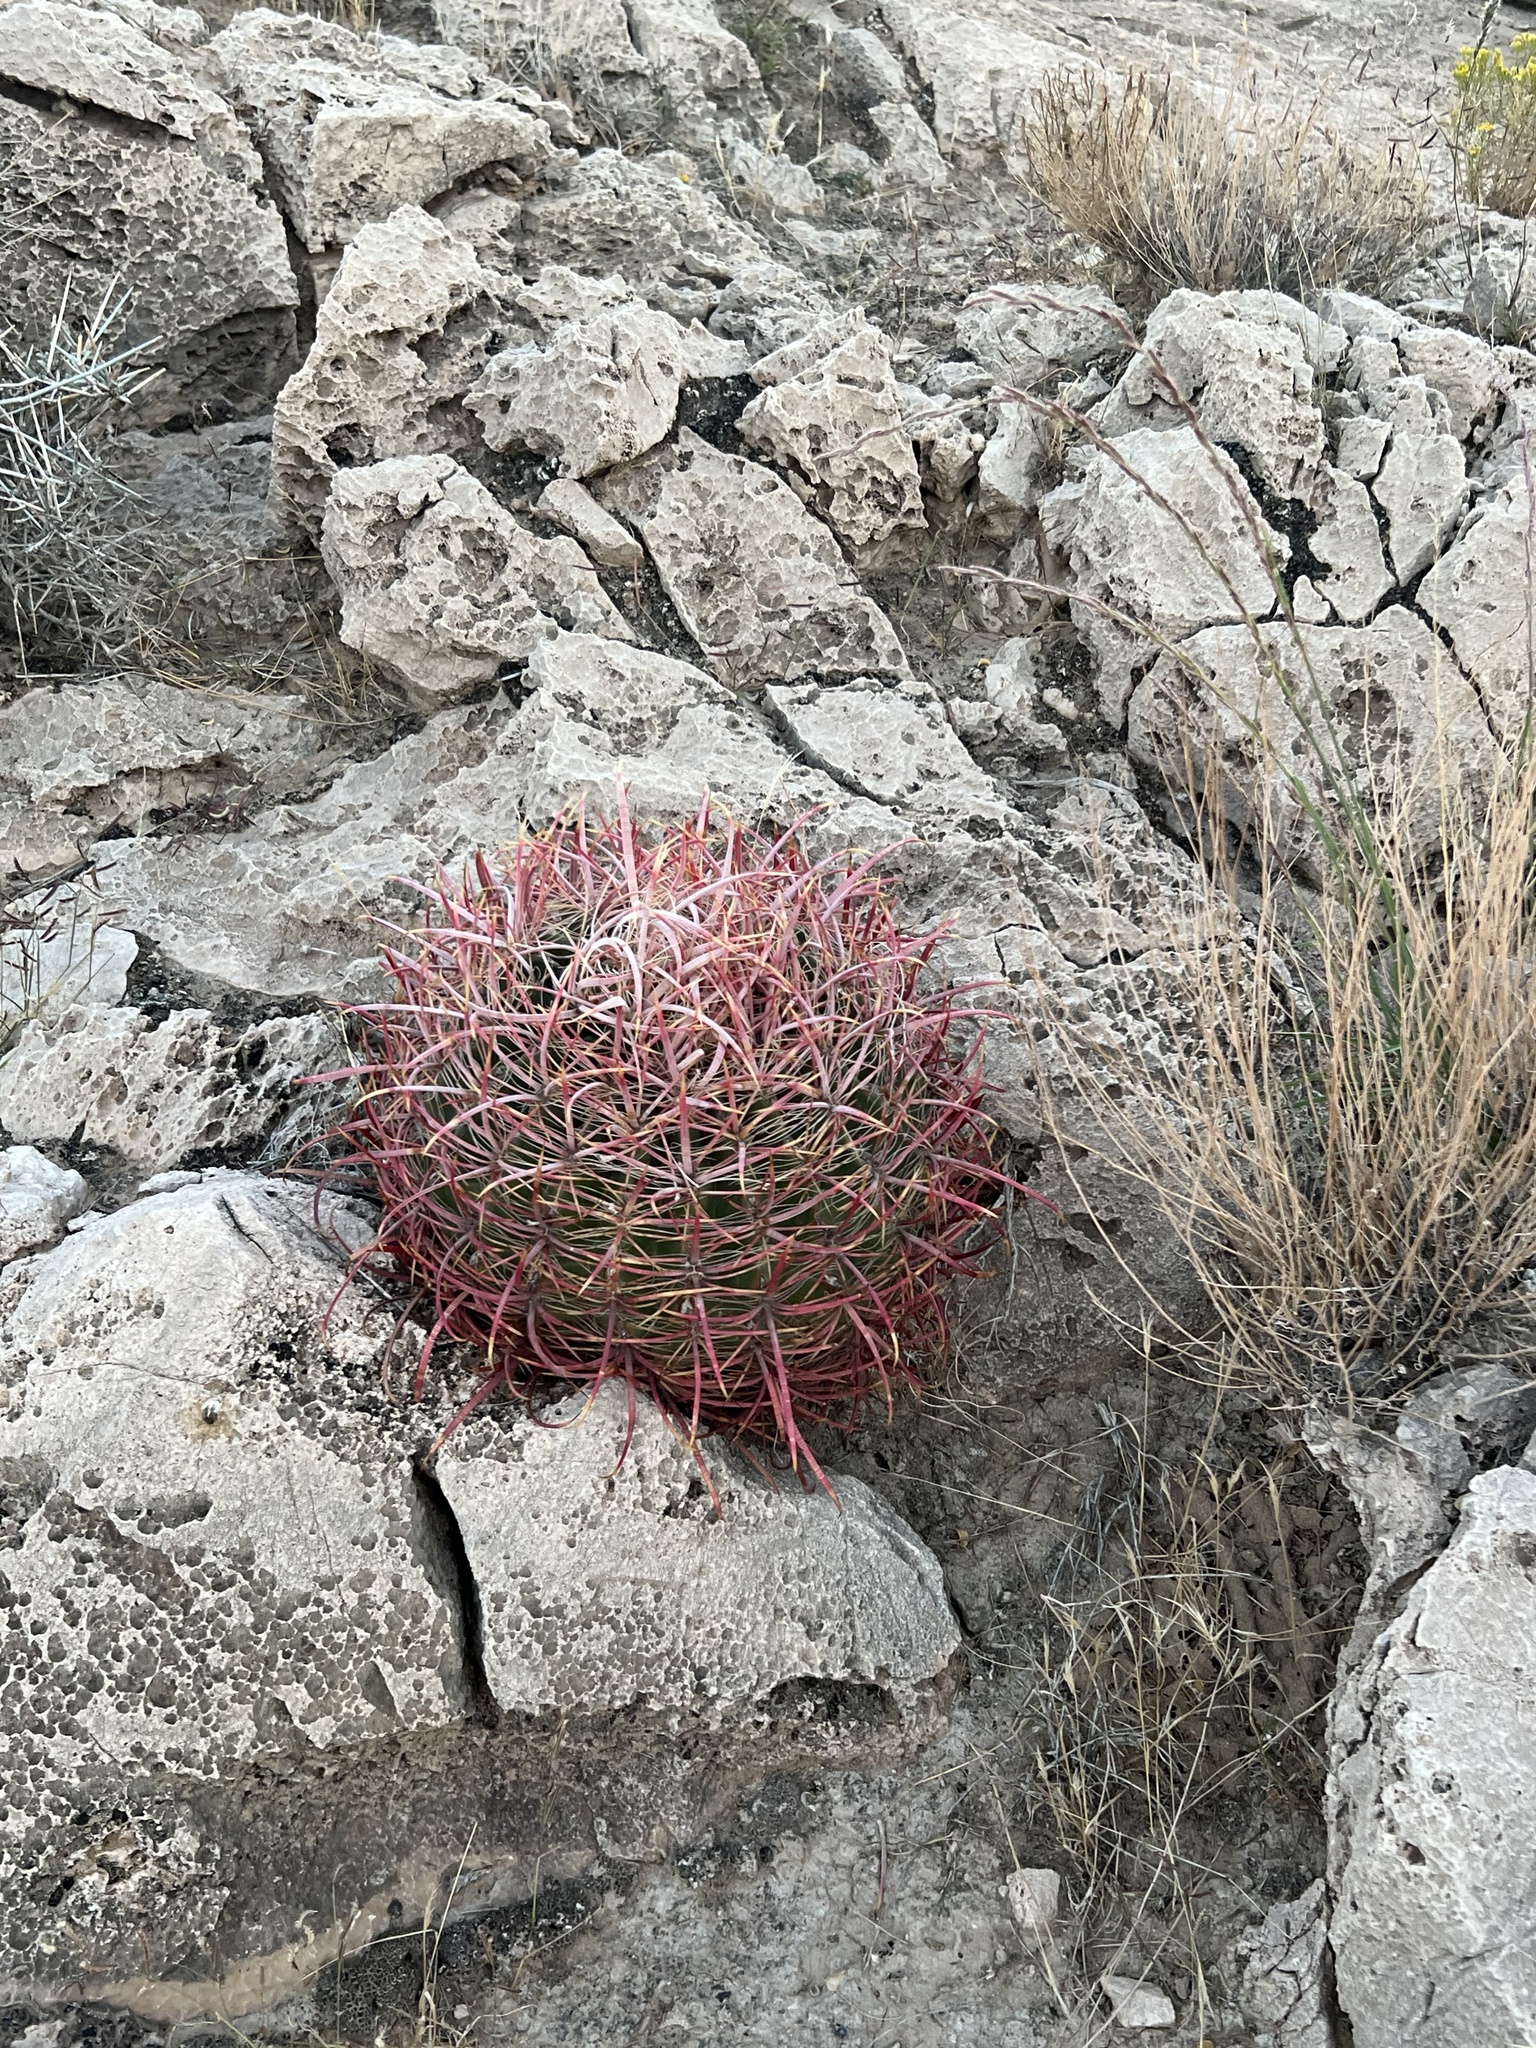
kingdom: Plantae
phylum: Tracheophyta
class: Magnoliopsida
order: Caryophyllales
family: Cactaceae
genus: Ferocactus
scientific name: Ferocactus cylindraceus
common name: California barrel cactus
